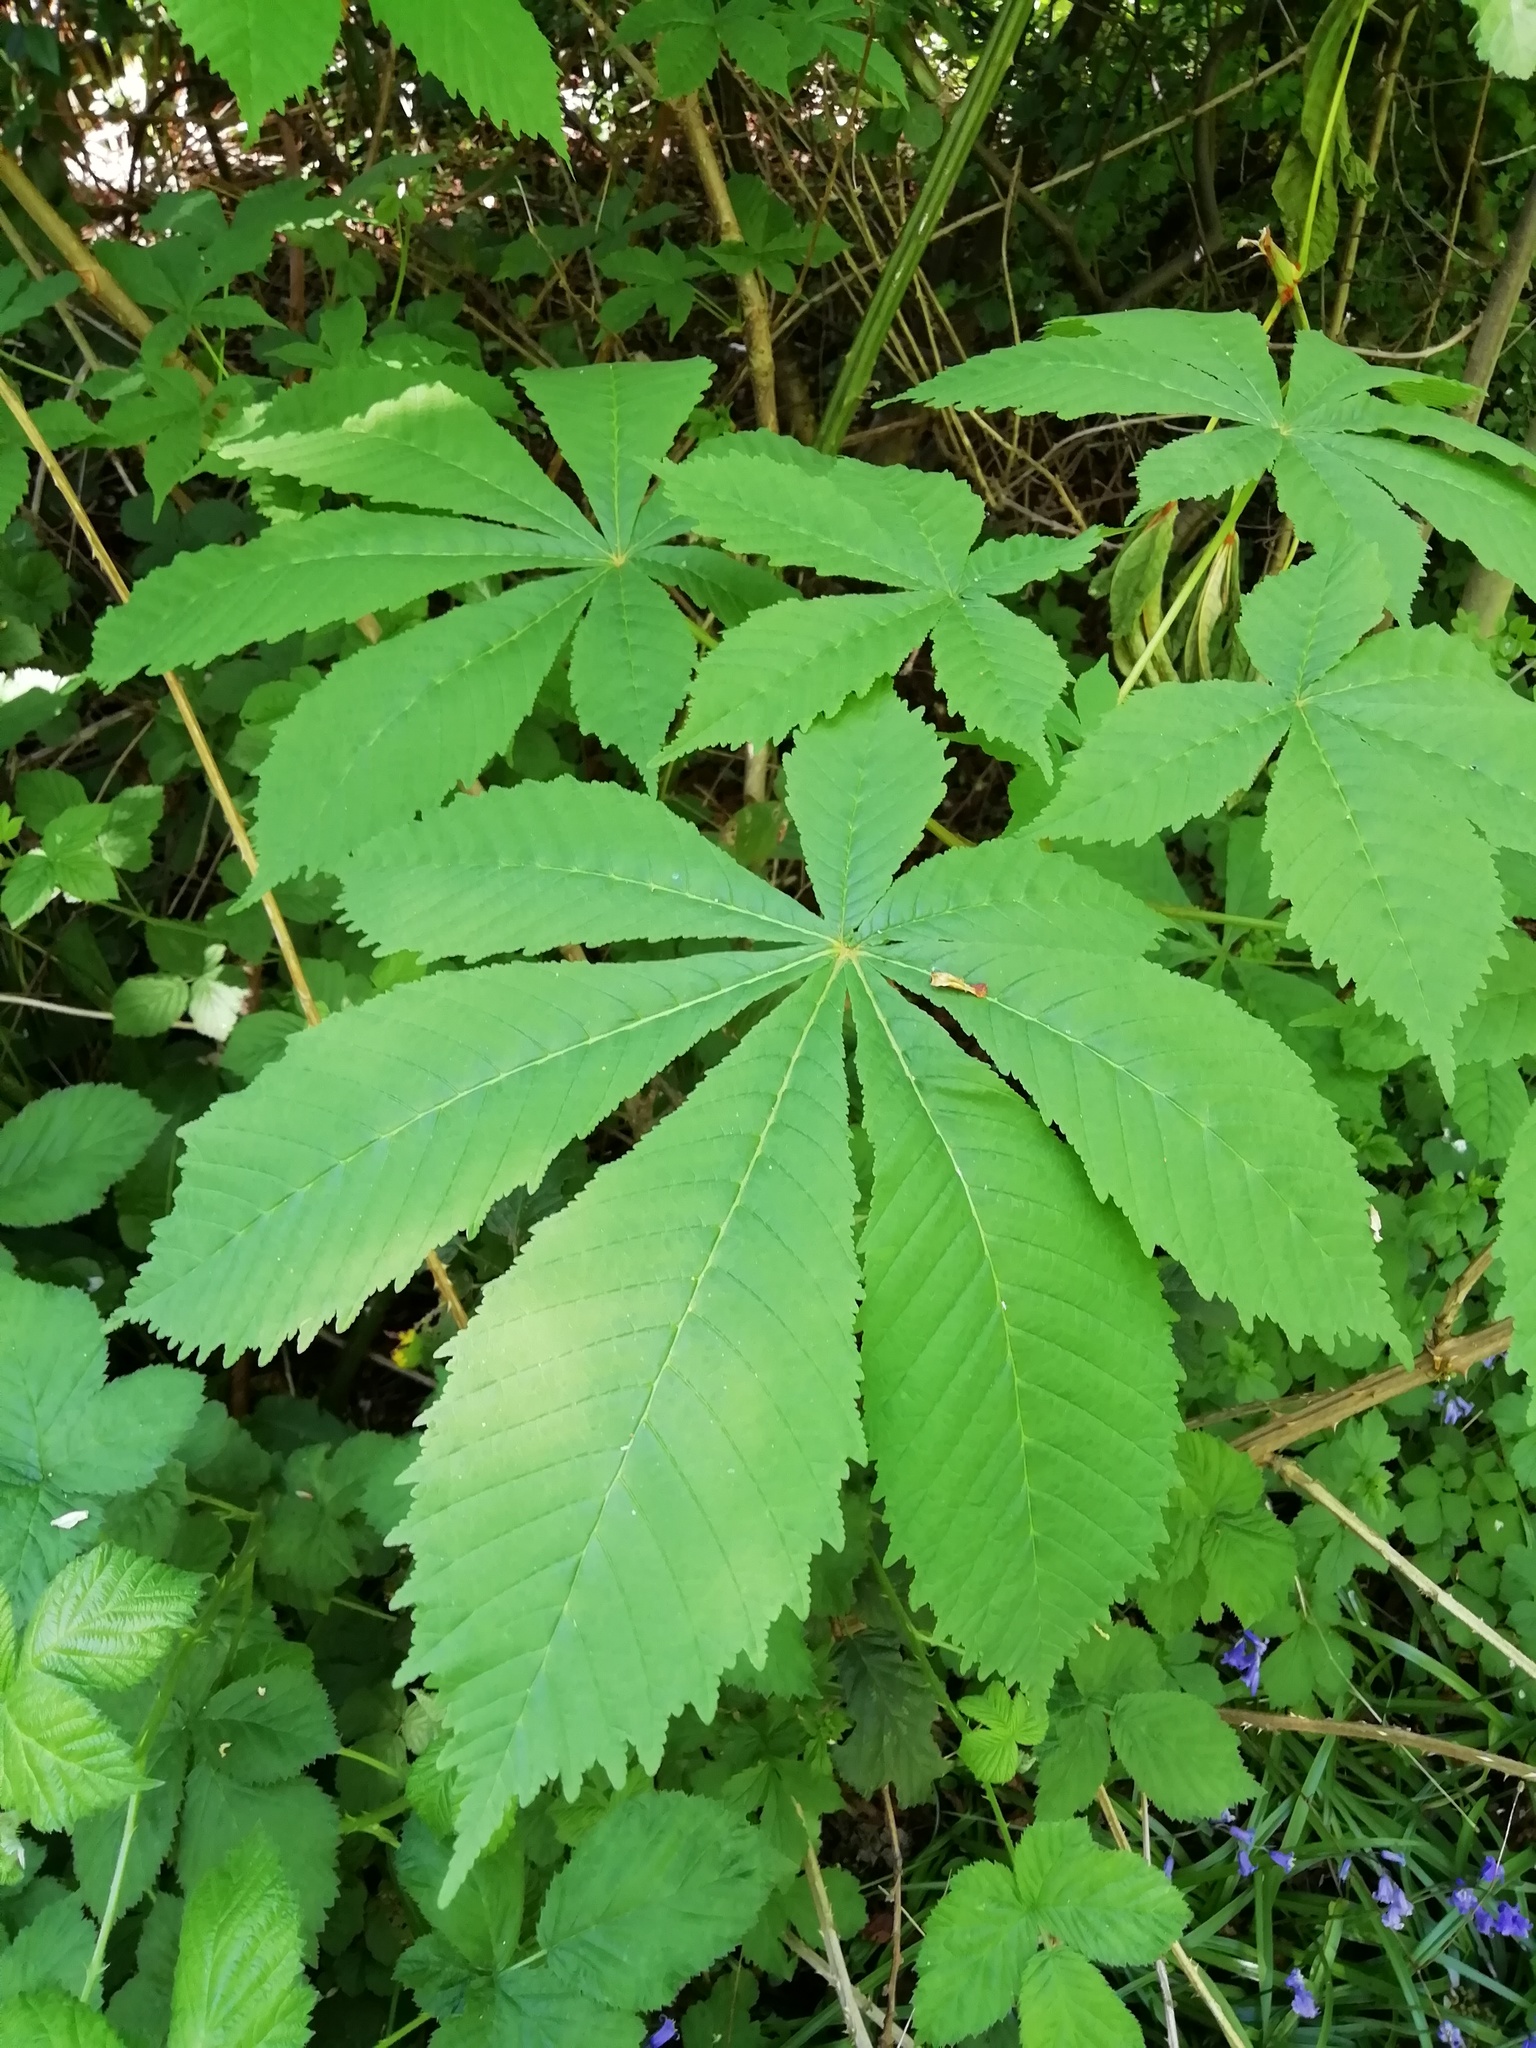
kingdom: Plantae
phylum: Tracheophyta
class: Magnoliopsida
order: Sapindales
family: Sapindaceae
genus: Aesculus
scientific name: Aesculus hippocastanum
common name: Horse-chestnut
